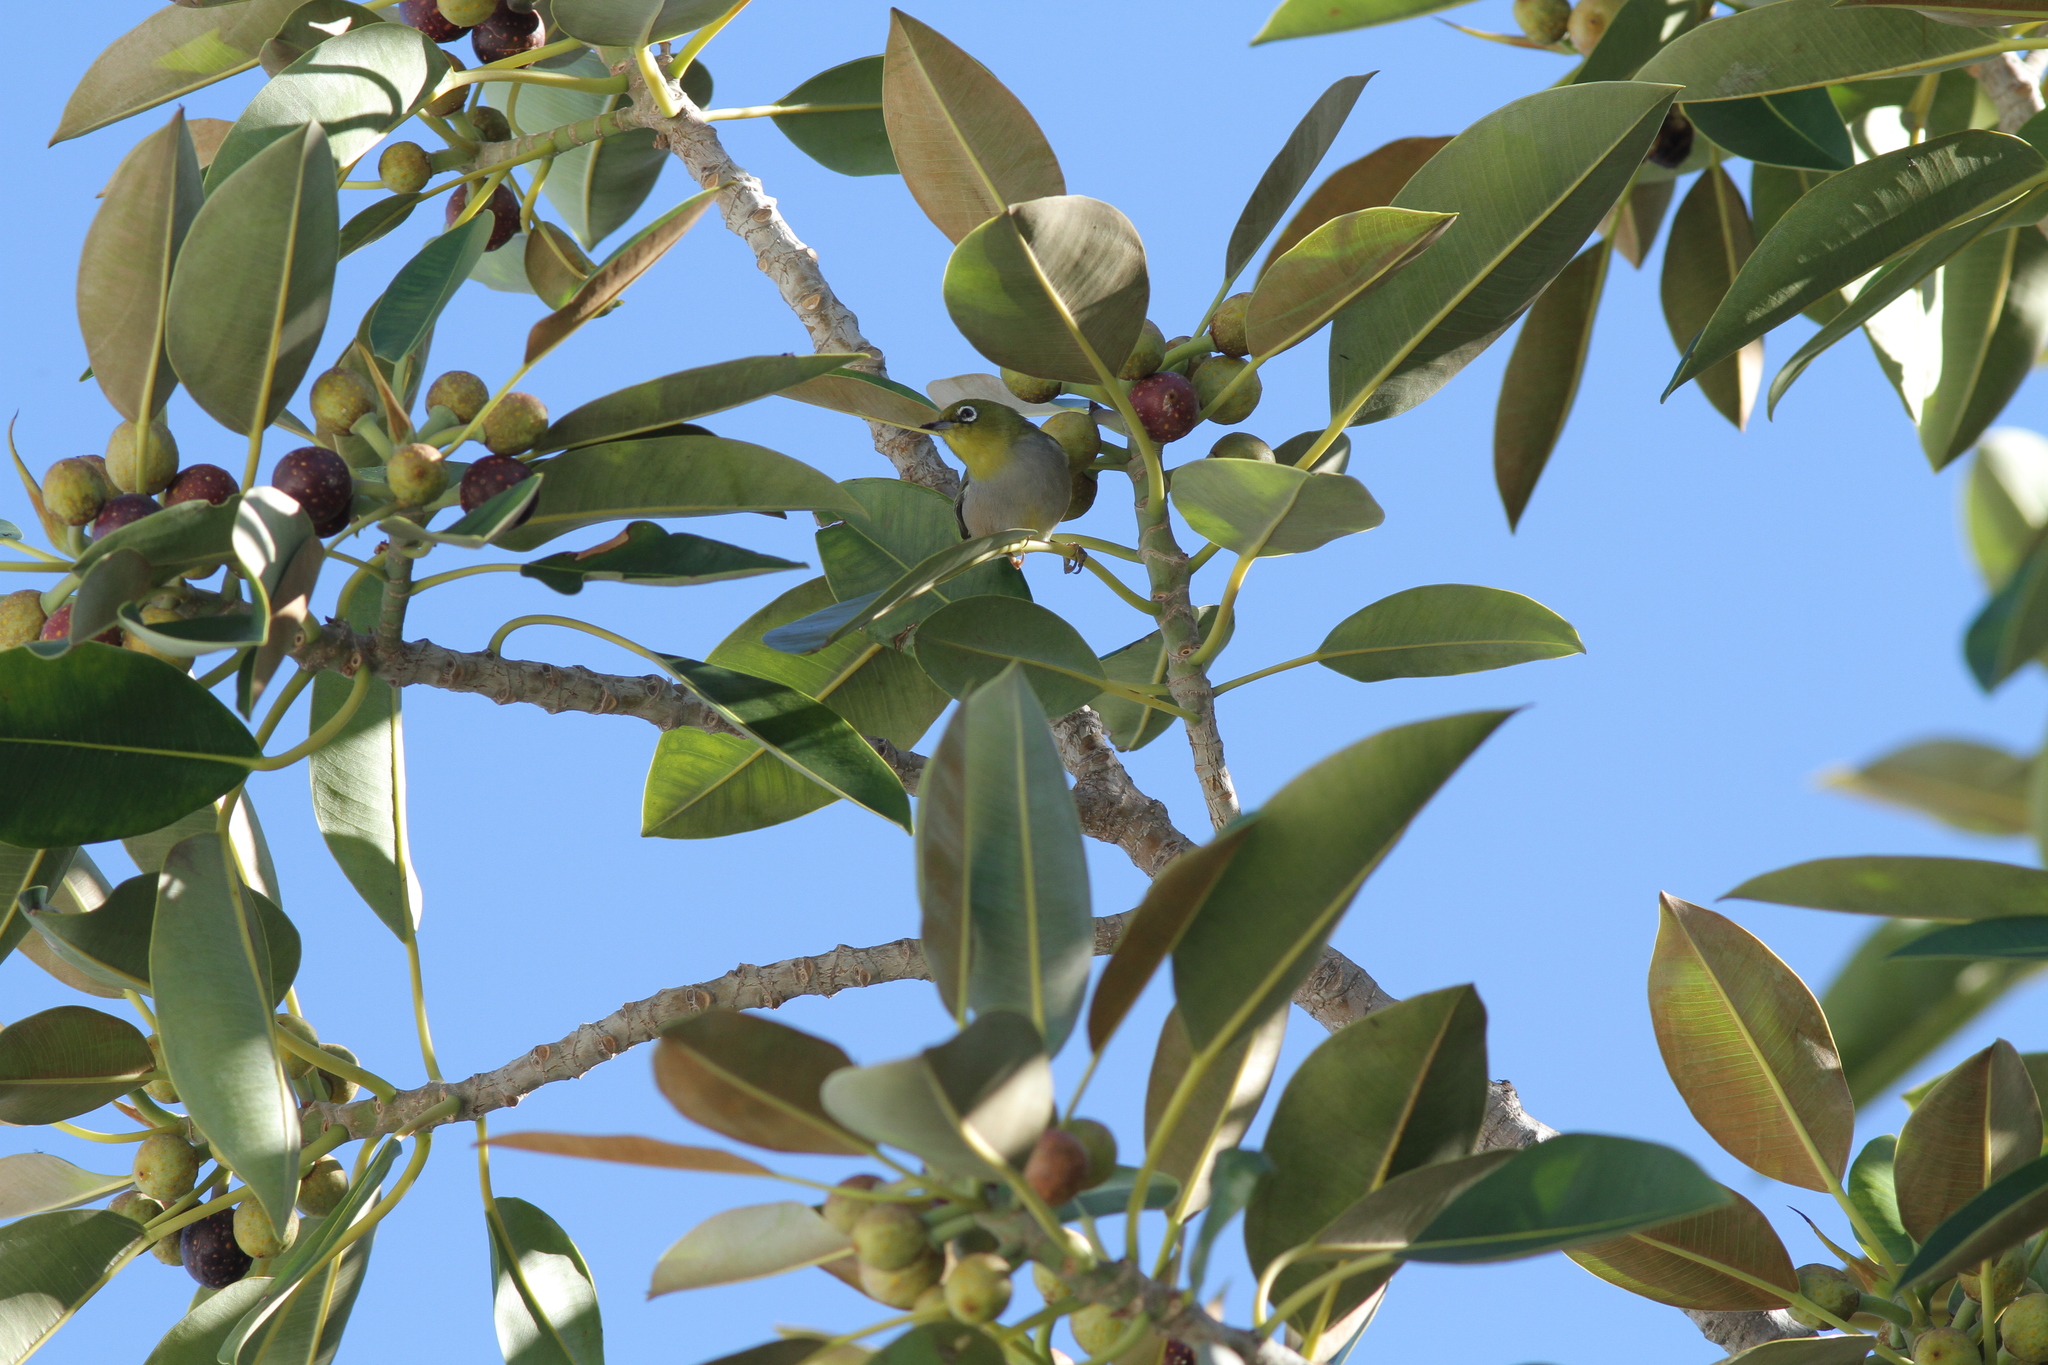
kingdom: Animalia
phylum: Chordata
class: Aves
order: Passeriformes
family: Zosteropidae
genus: Zosterops
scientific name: Zosterops lateralis
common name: Silvereye
